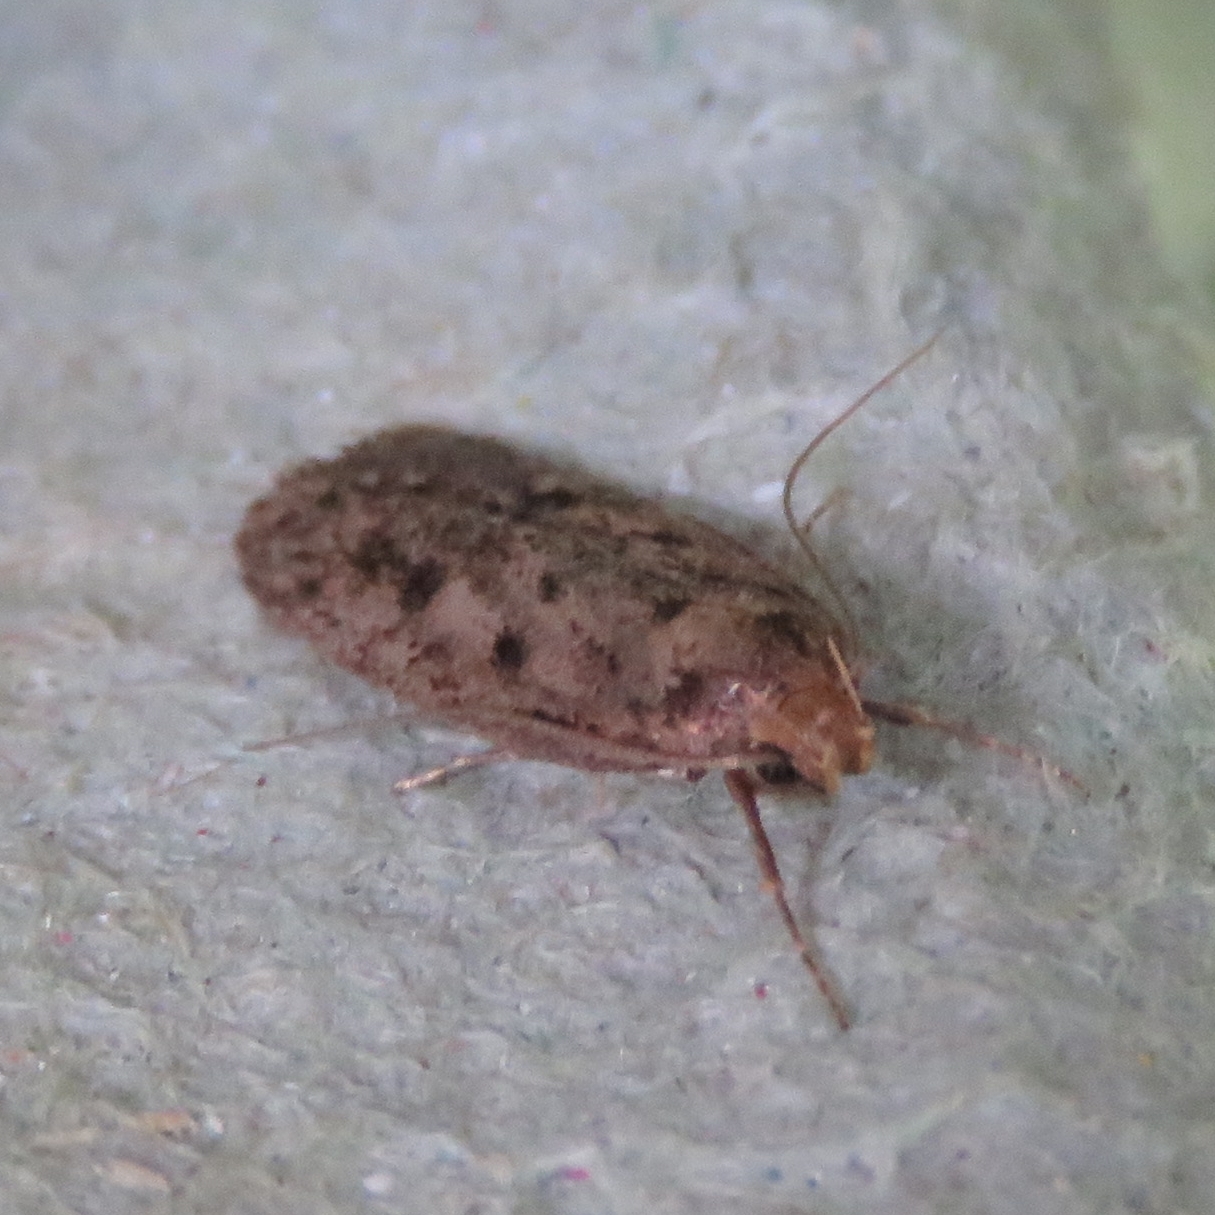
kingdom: Animalia
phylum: Arthropoda
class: Insecta
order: Lepidoptera
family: Oecophoridae
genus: Hofmannophila
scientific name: Hofmannophila pseudospretella
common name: Brown house moth
